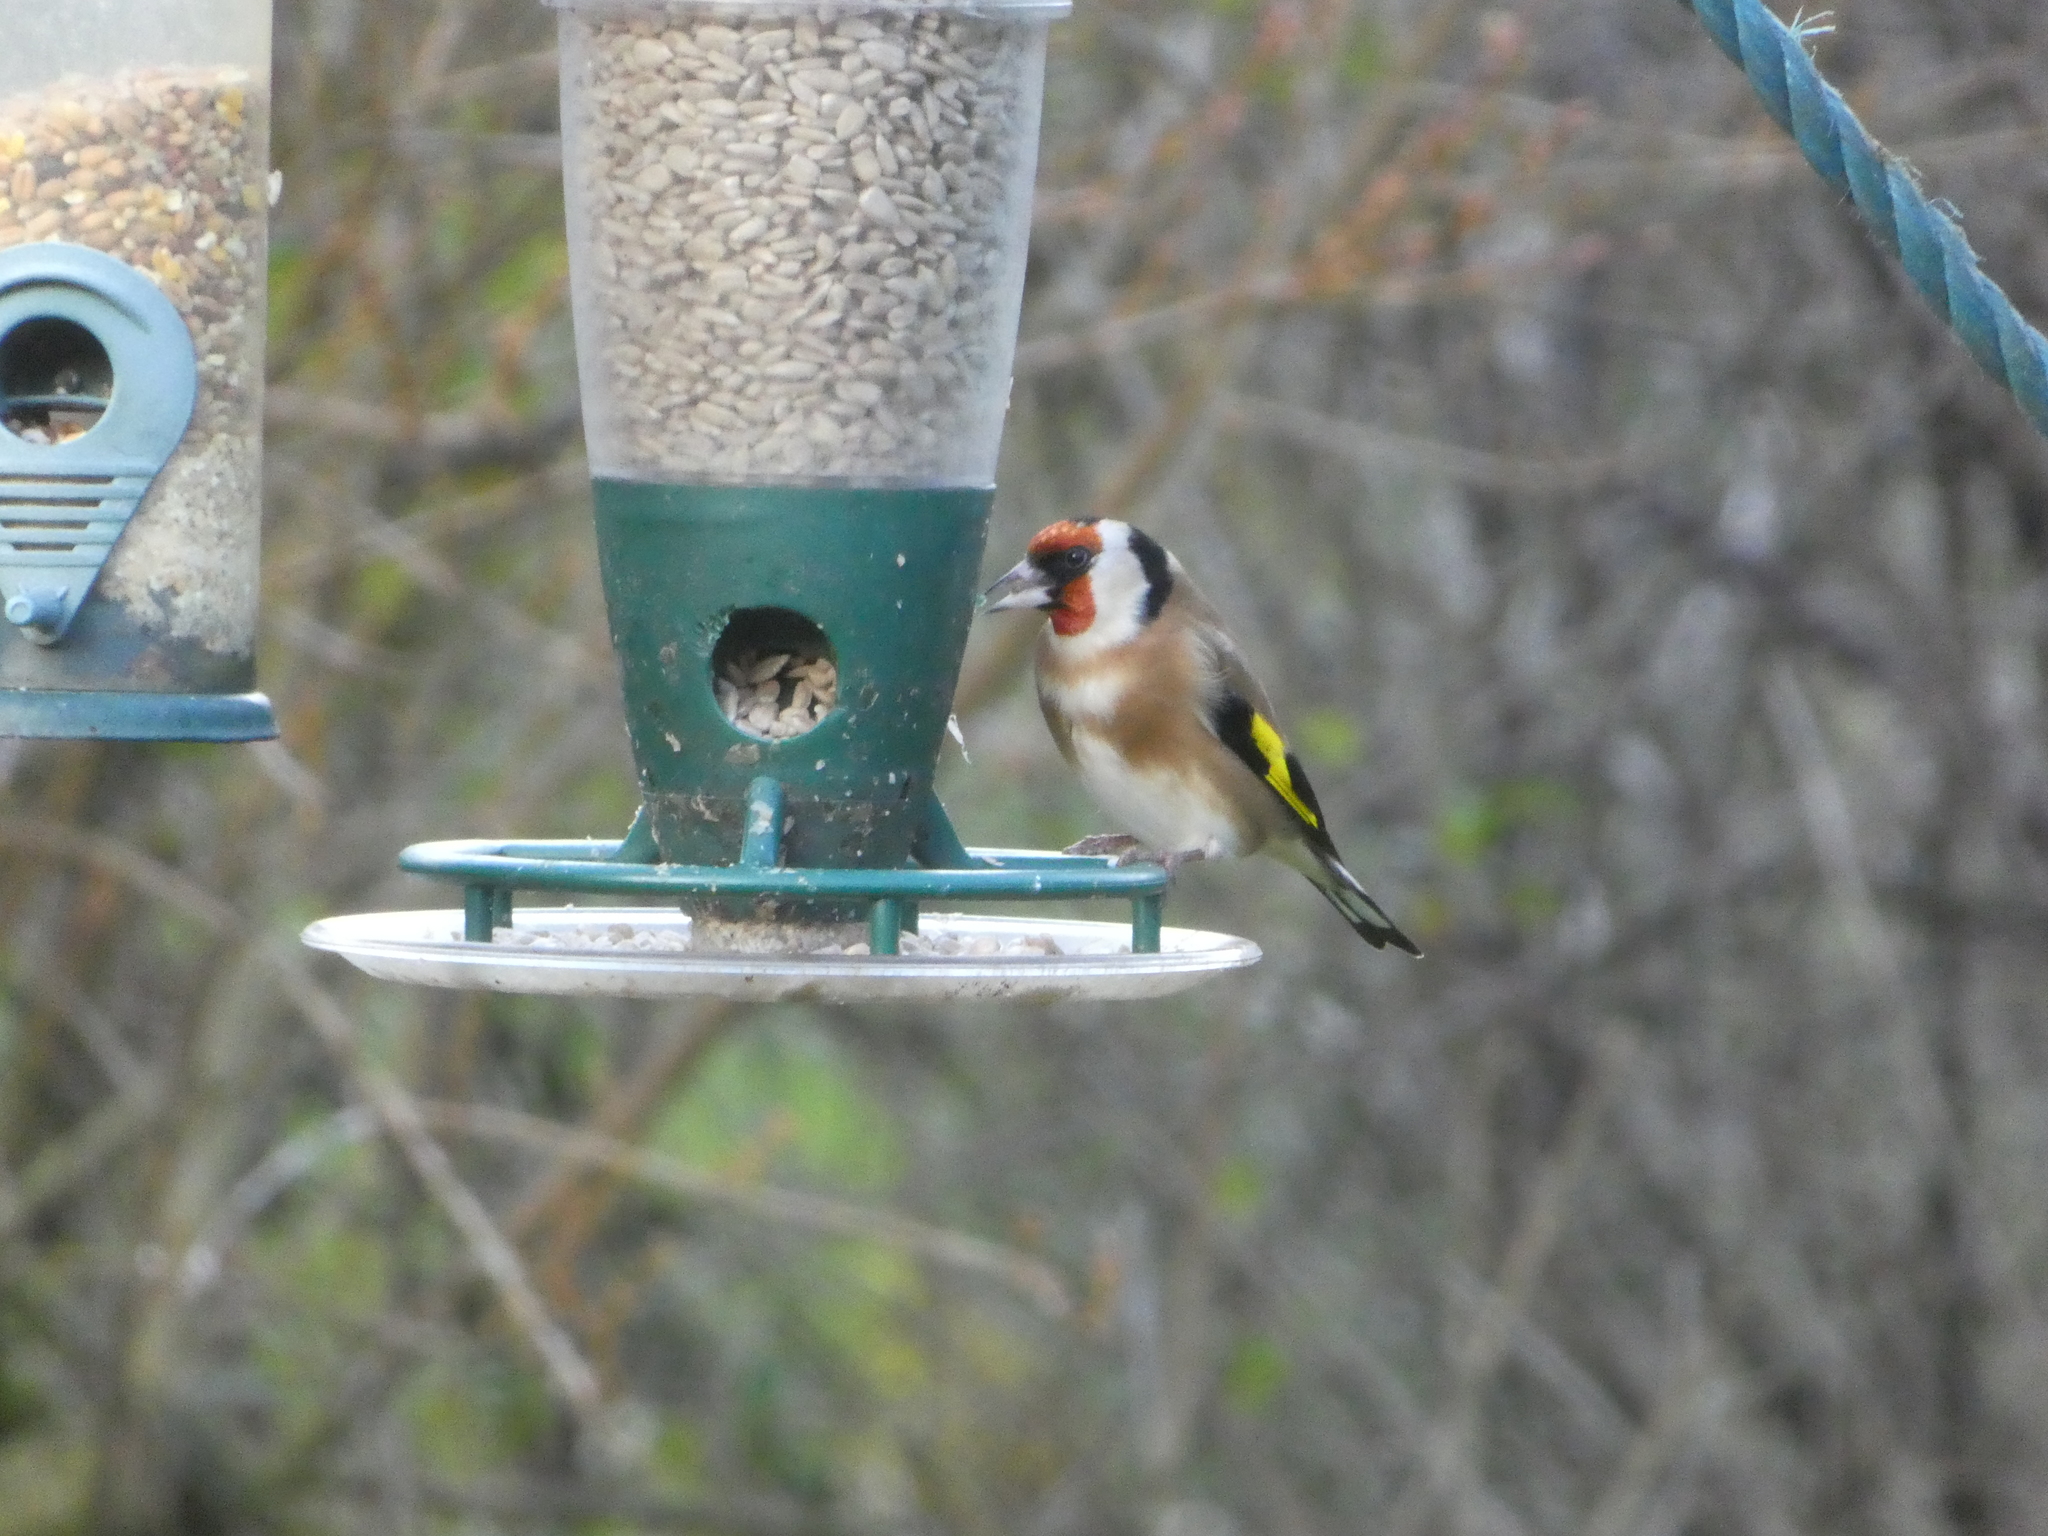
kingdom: Animalia
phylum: Chordata
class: Aves
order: Passeriformes
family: Fringillidae
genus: Carduelis
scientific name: Carduelis carduelis
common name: European goldfinch
